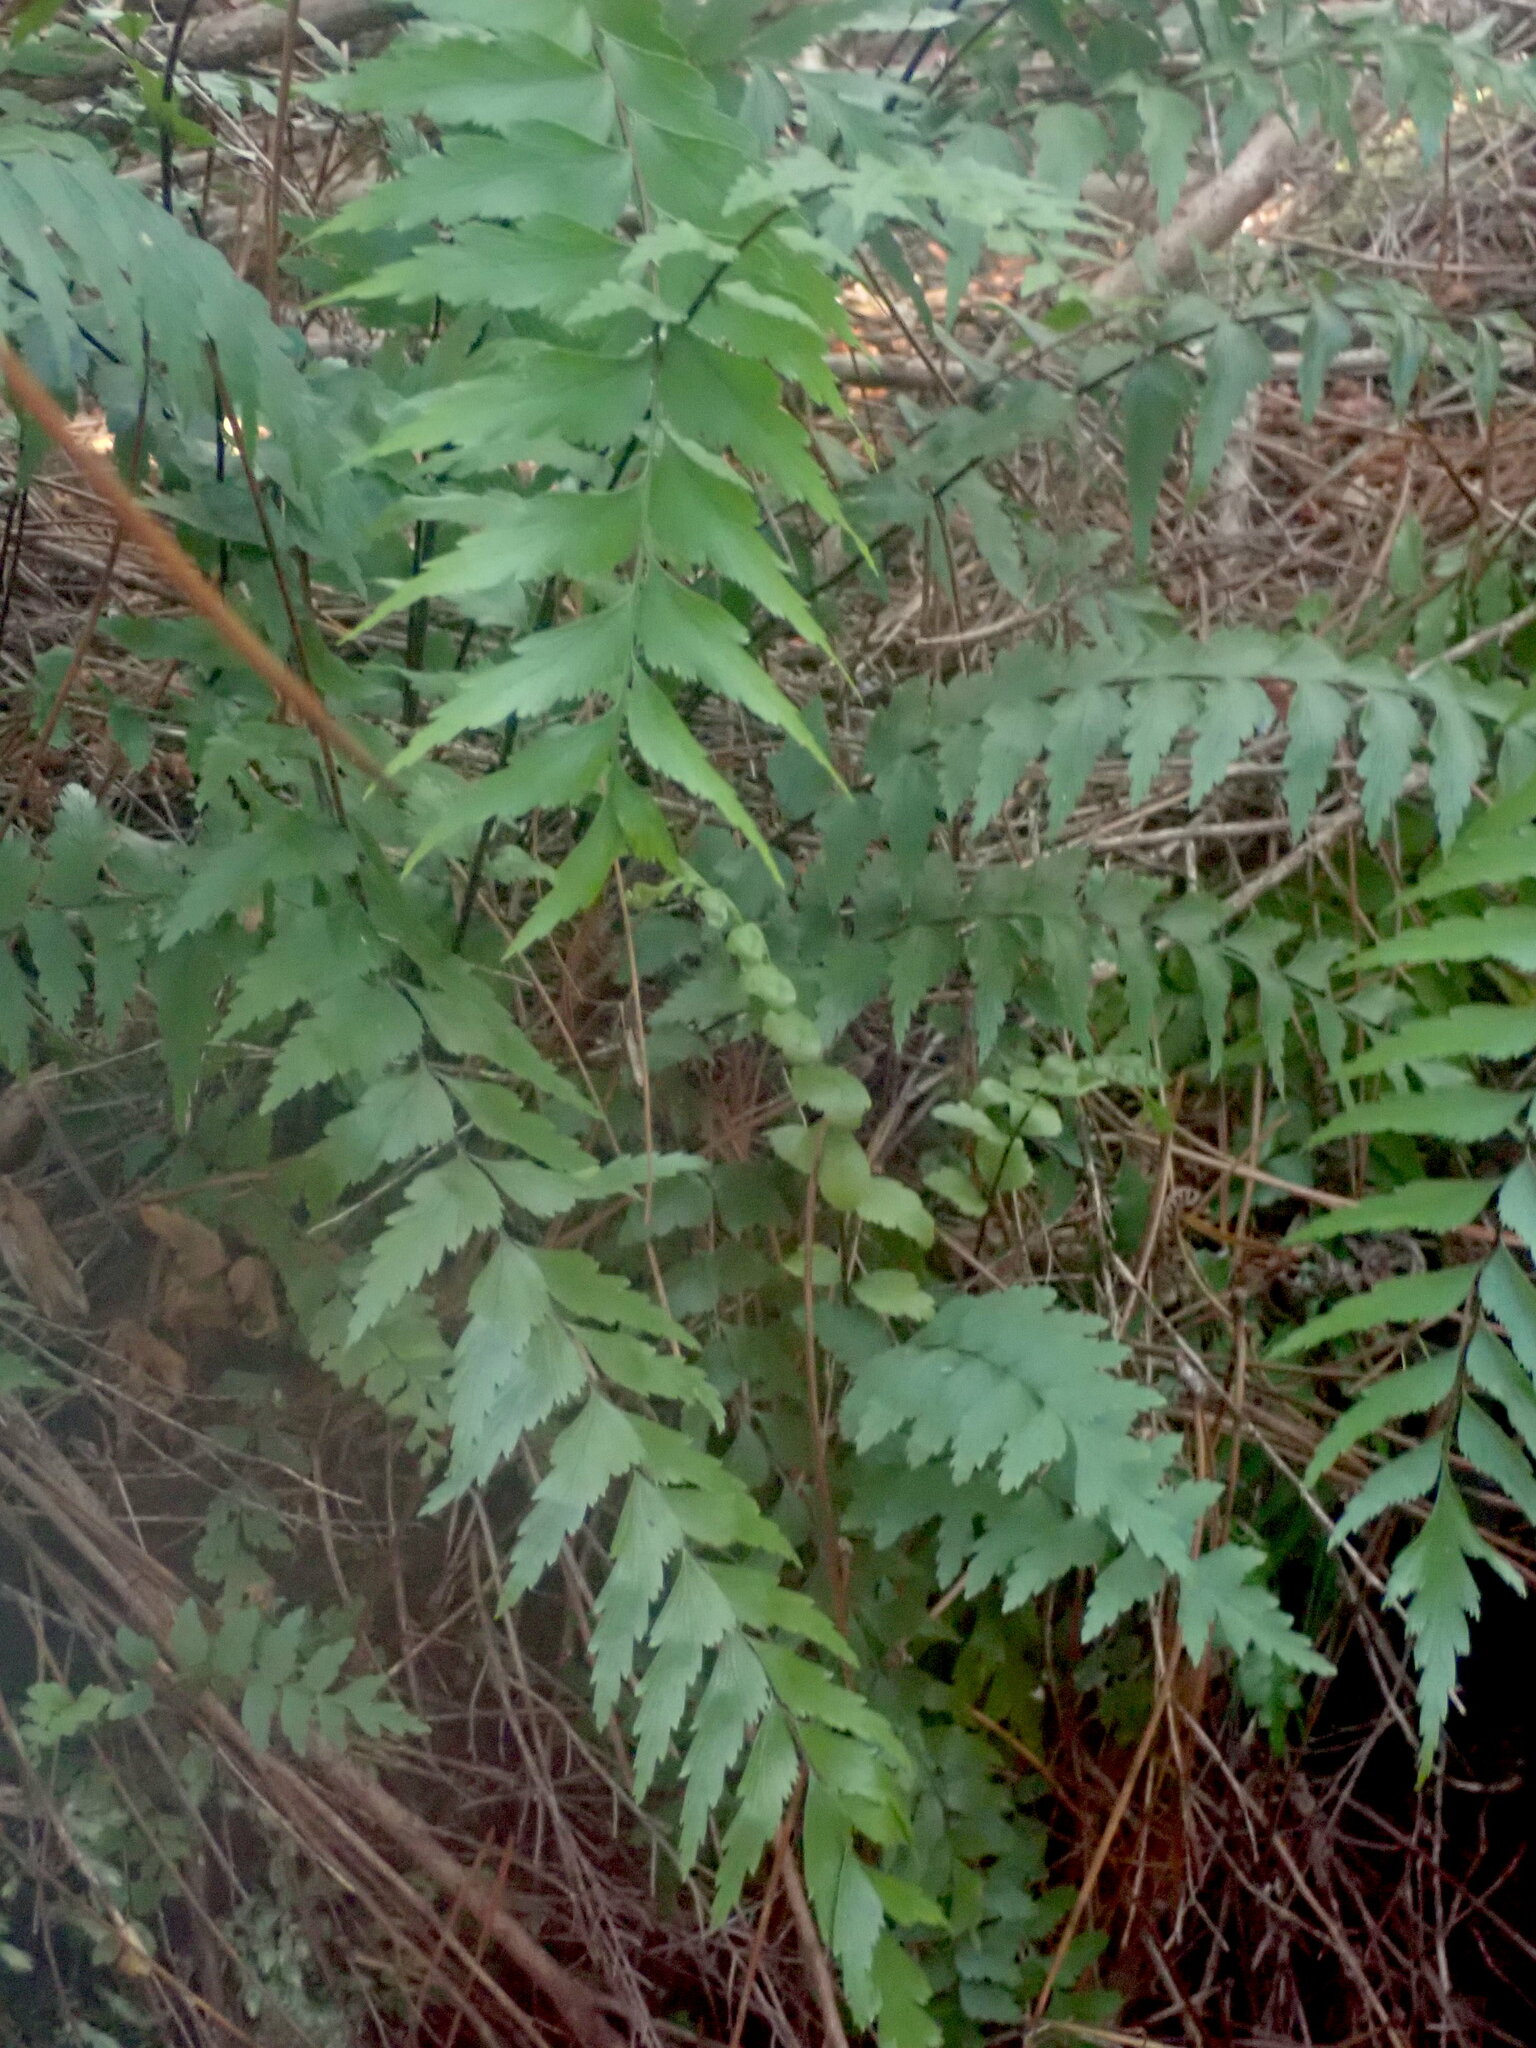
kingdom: Plantae
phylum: Tracheophyta
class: Polypodiopsida
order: Polypodiales
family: Aspleniaceae
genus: Asplenium
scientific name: Asplenium polyodon
